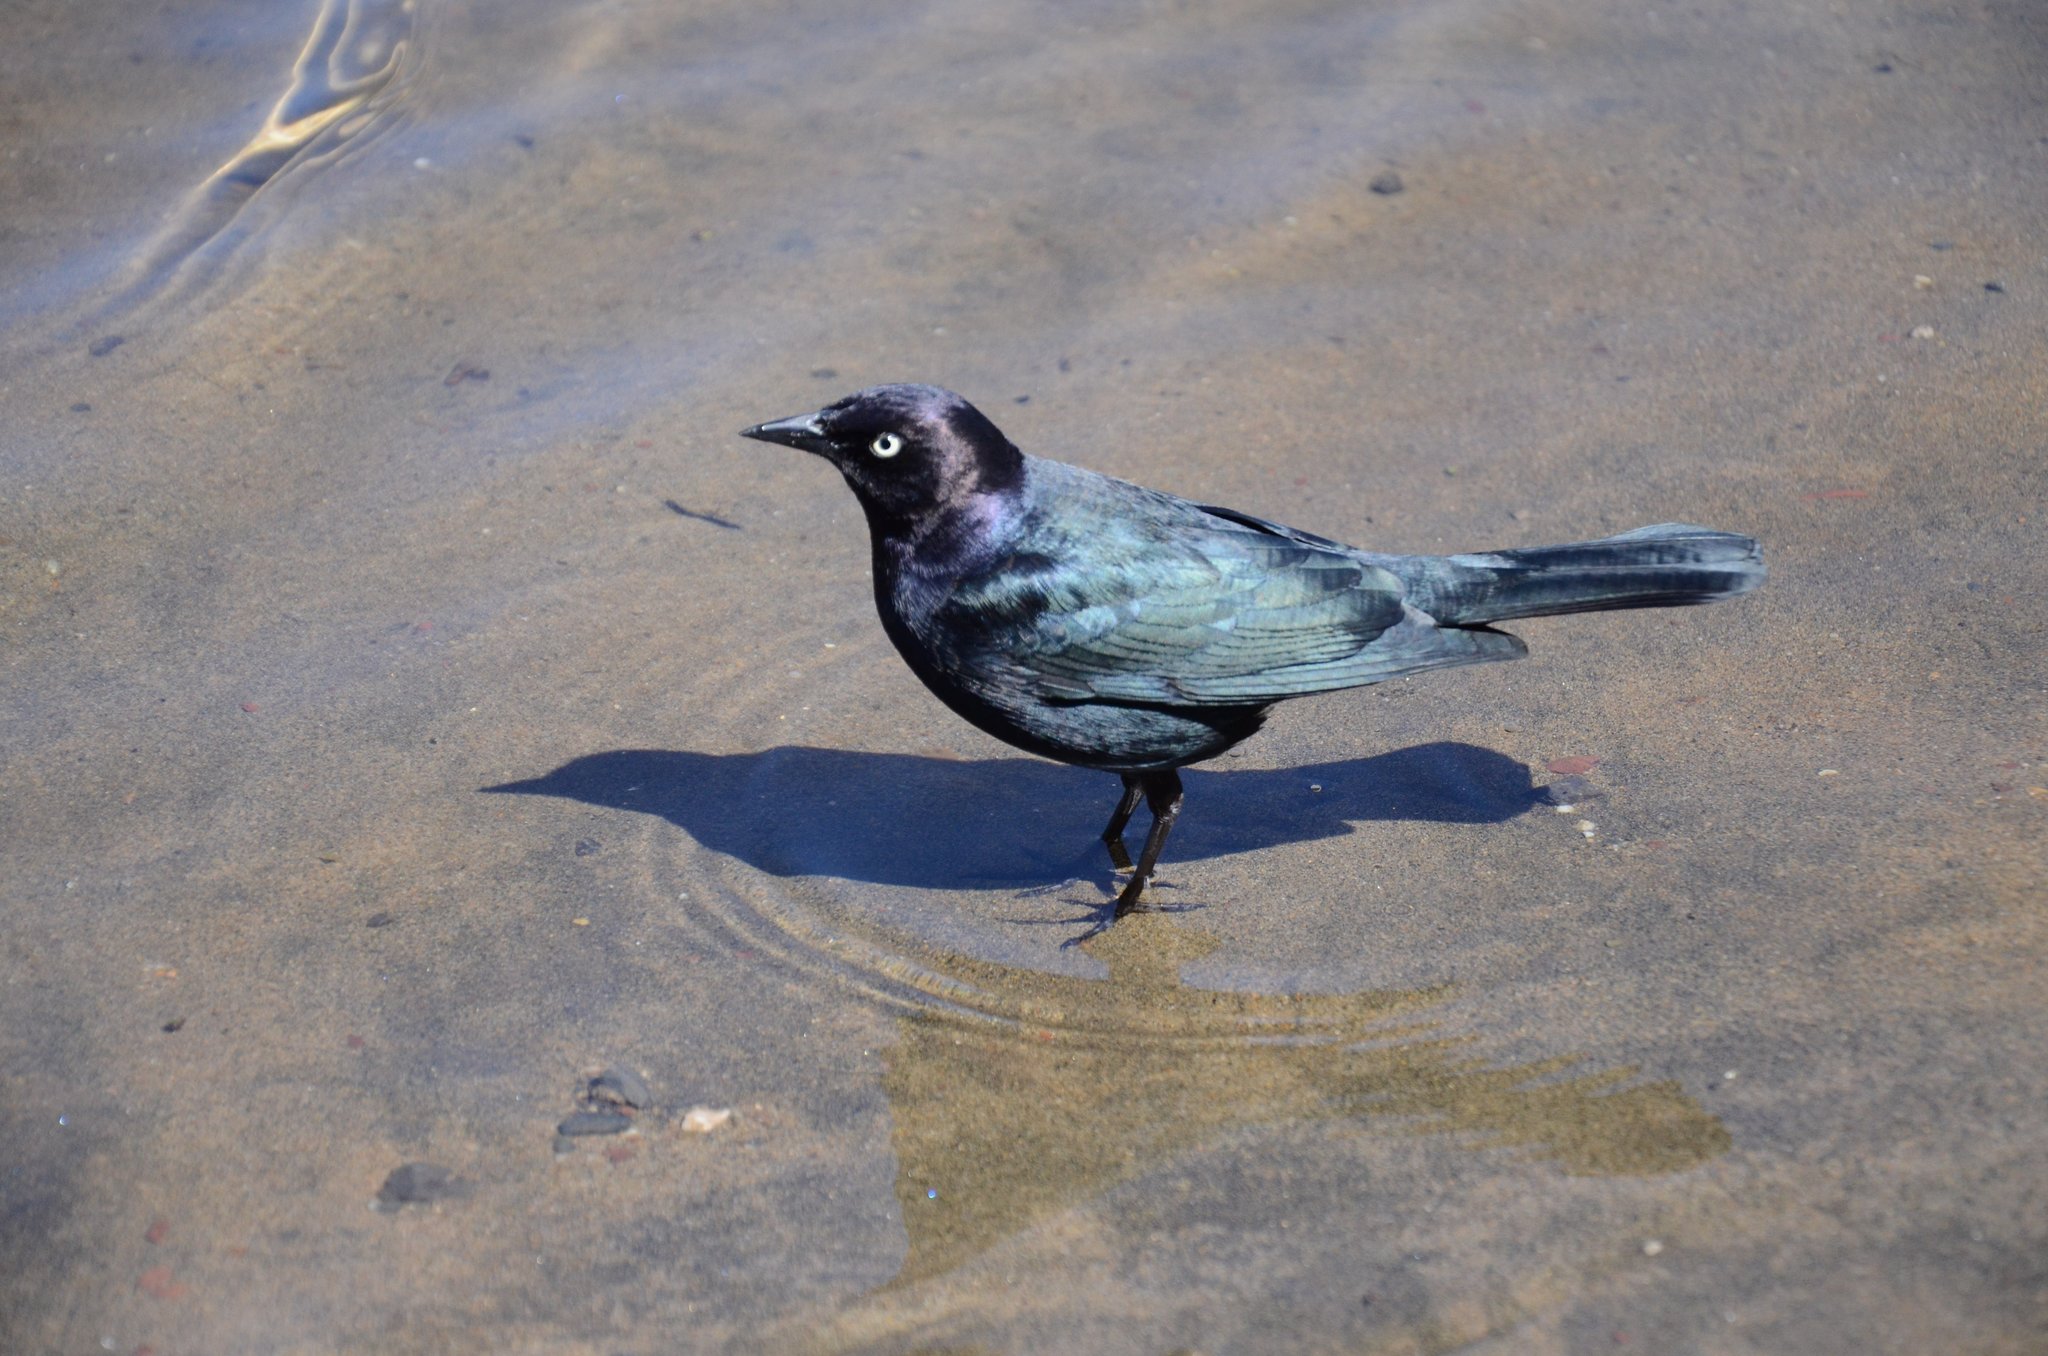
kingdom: Animalia
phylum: Chordata
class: Aves
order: Passeriformes
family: Icteridae
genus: Euphagus
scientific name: Euphagus cyanocephalus
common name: Brewer's blackbird
